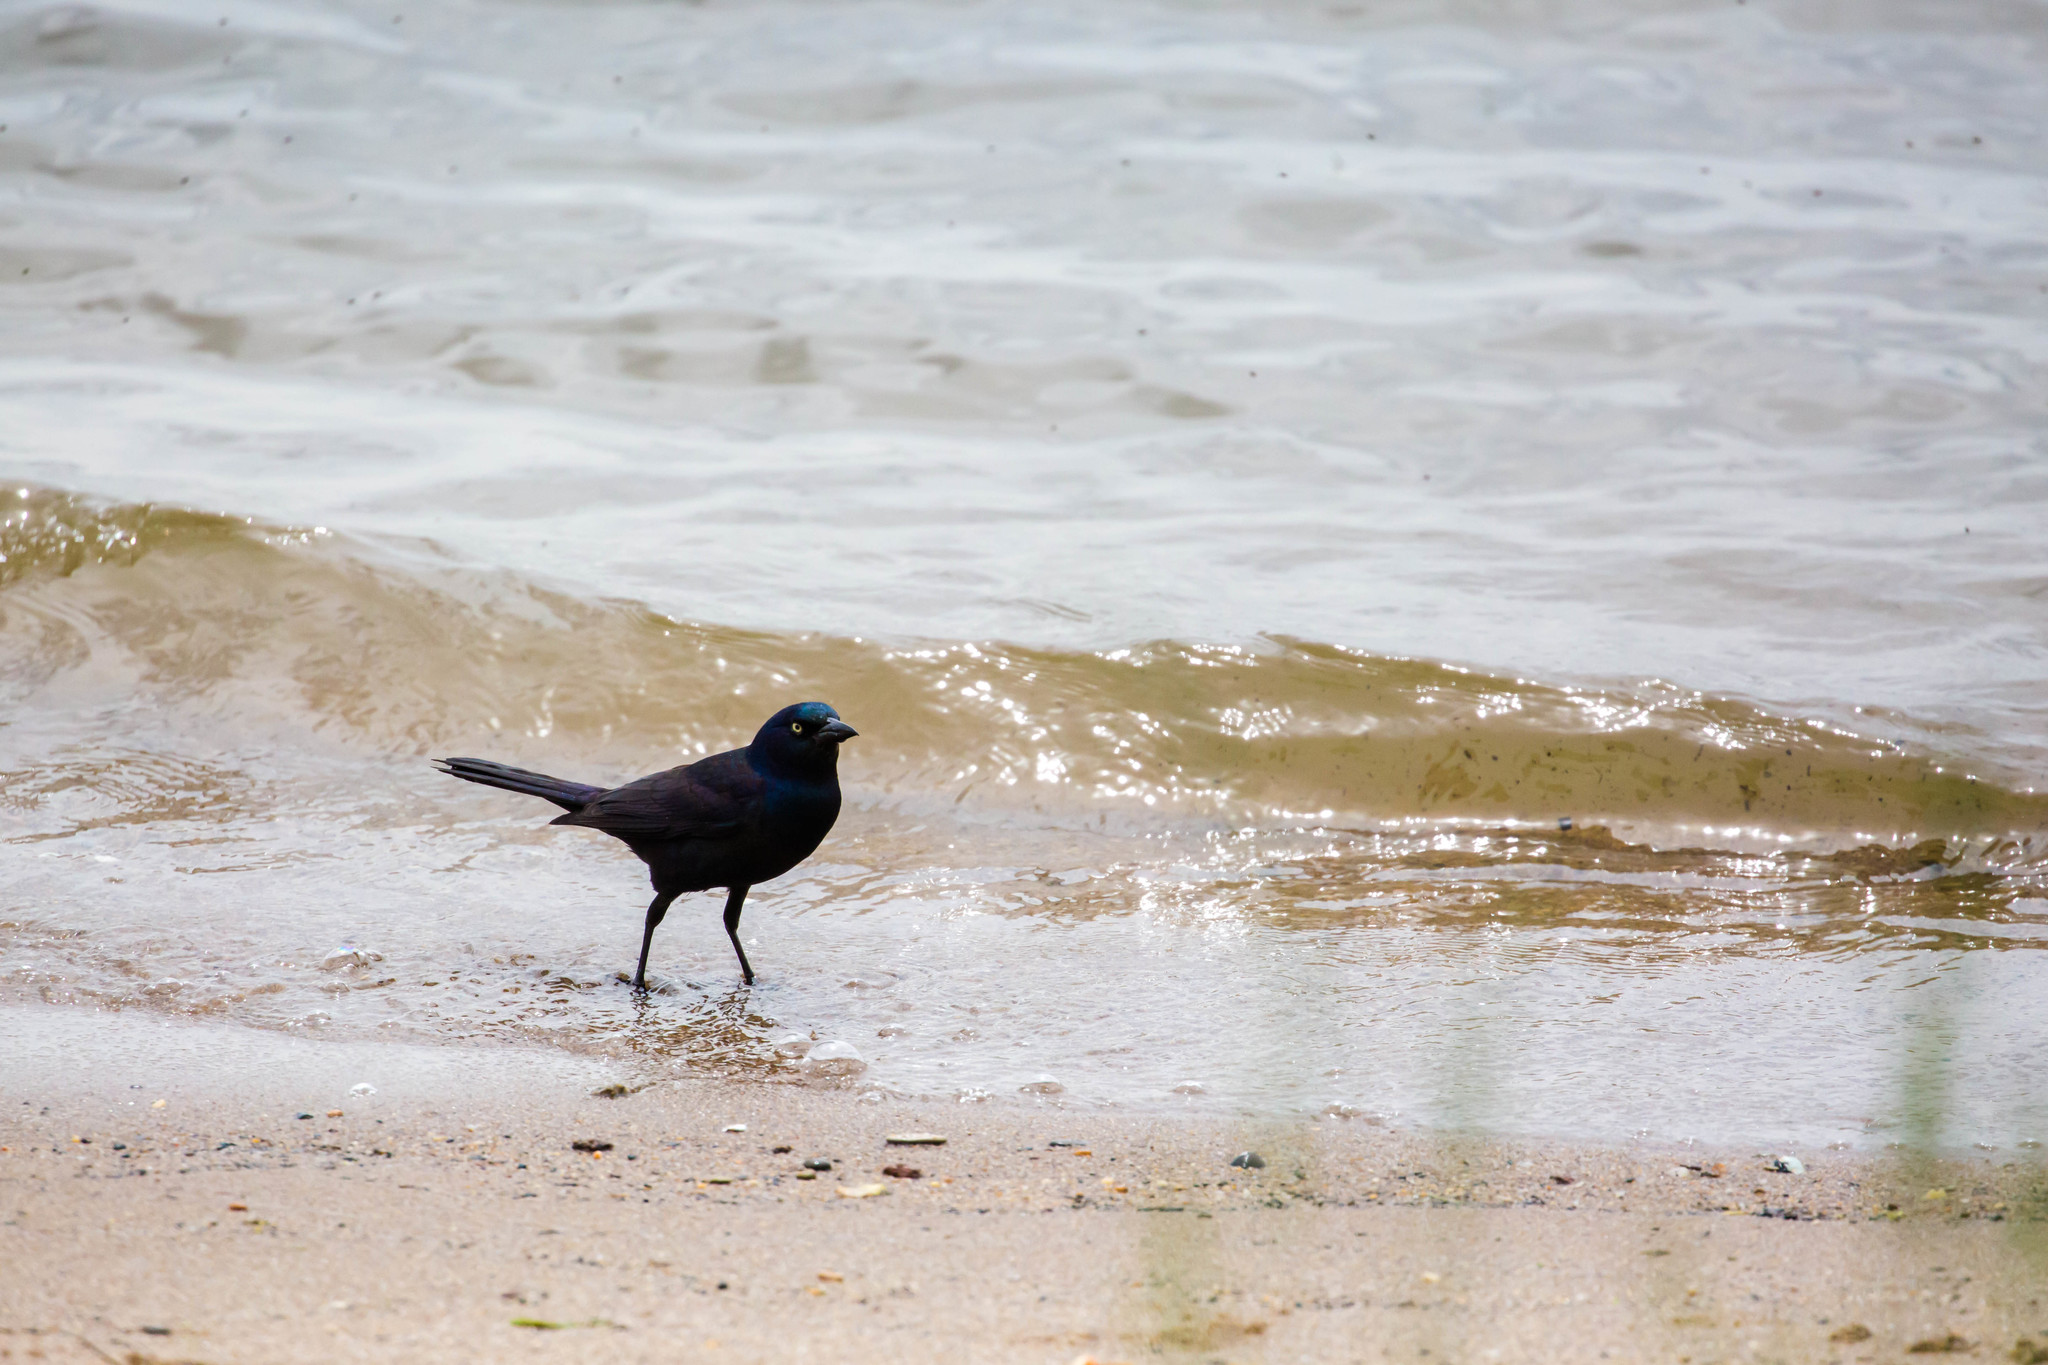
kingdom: Animalia
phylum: Chordata
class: Aves
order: Passeriformes
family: Icteridae
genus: Quiscalus
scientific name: Quiscalus quiscula
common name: Common grackle
